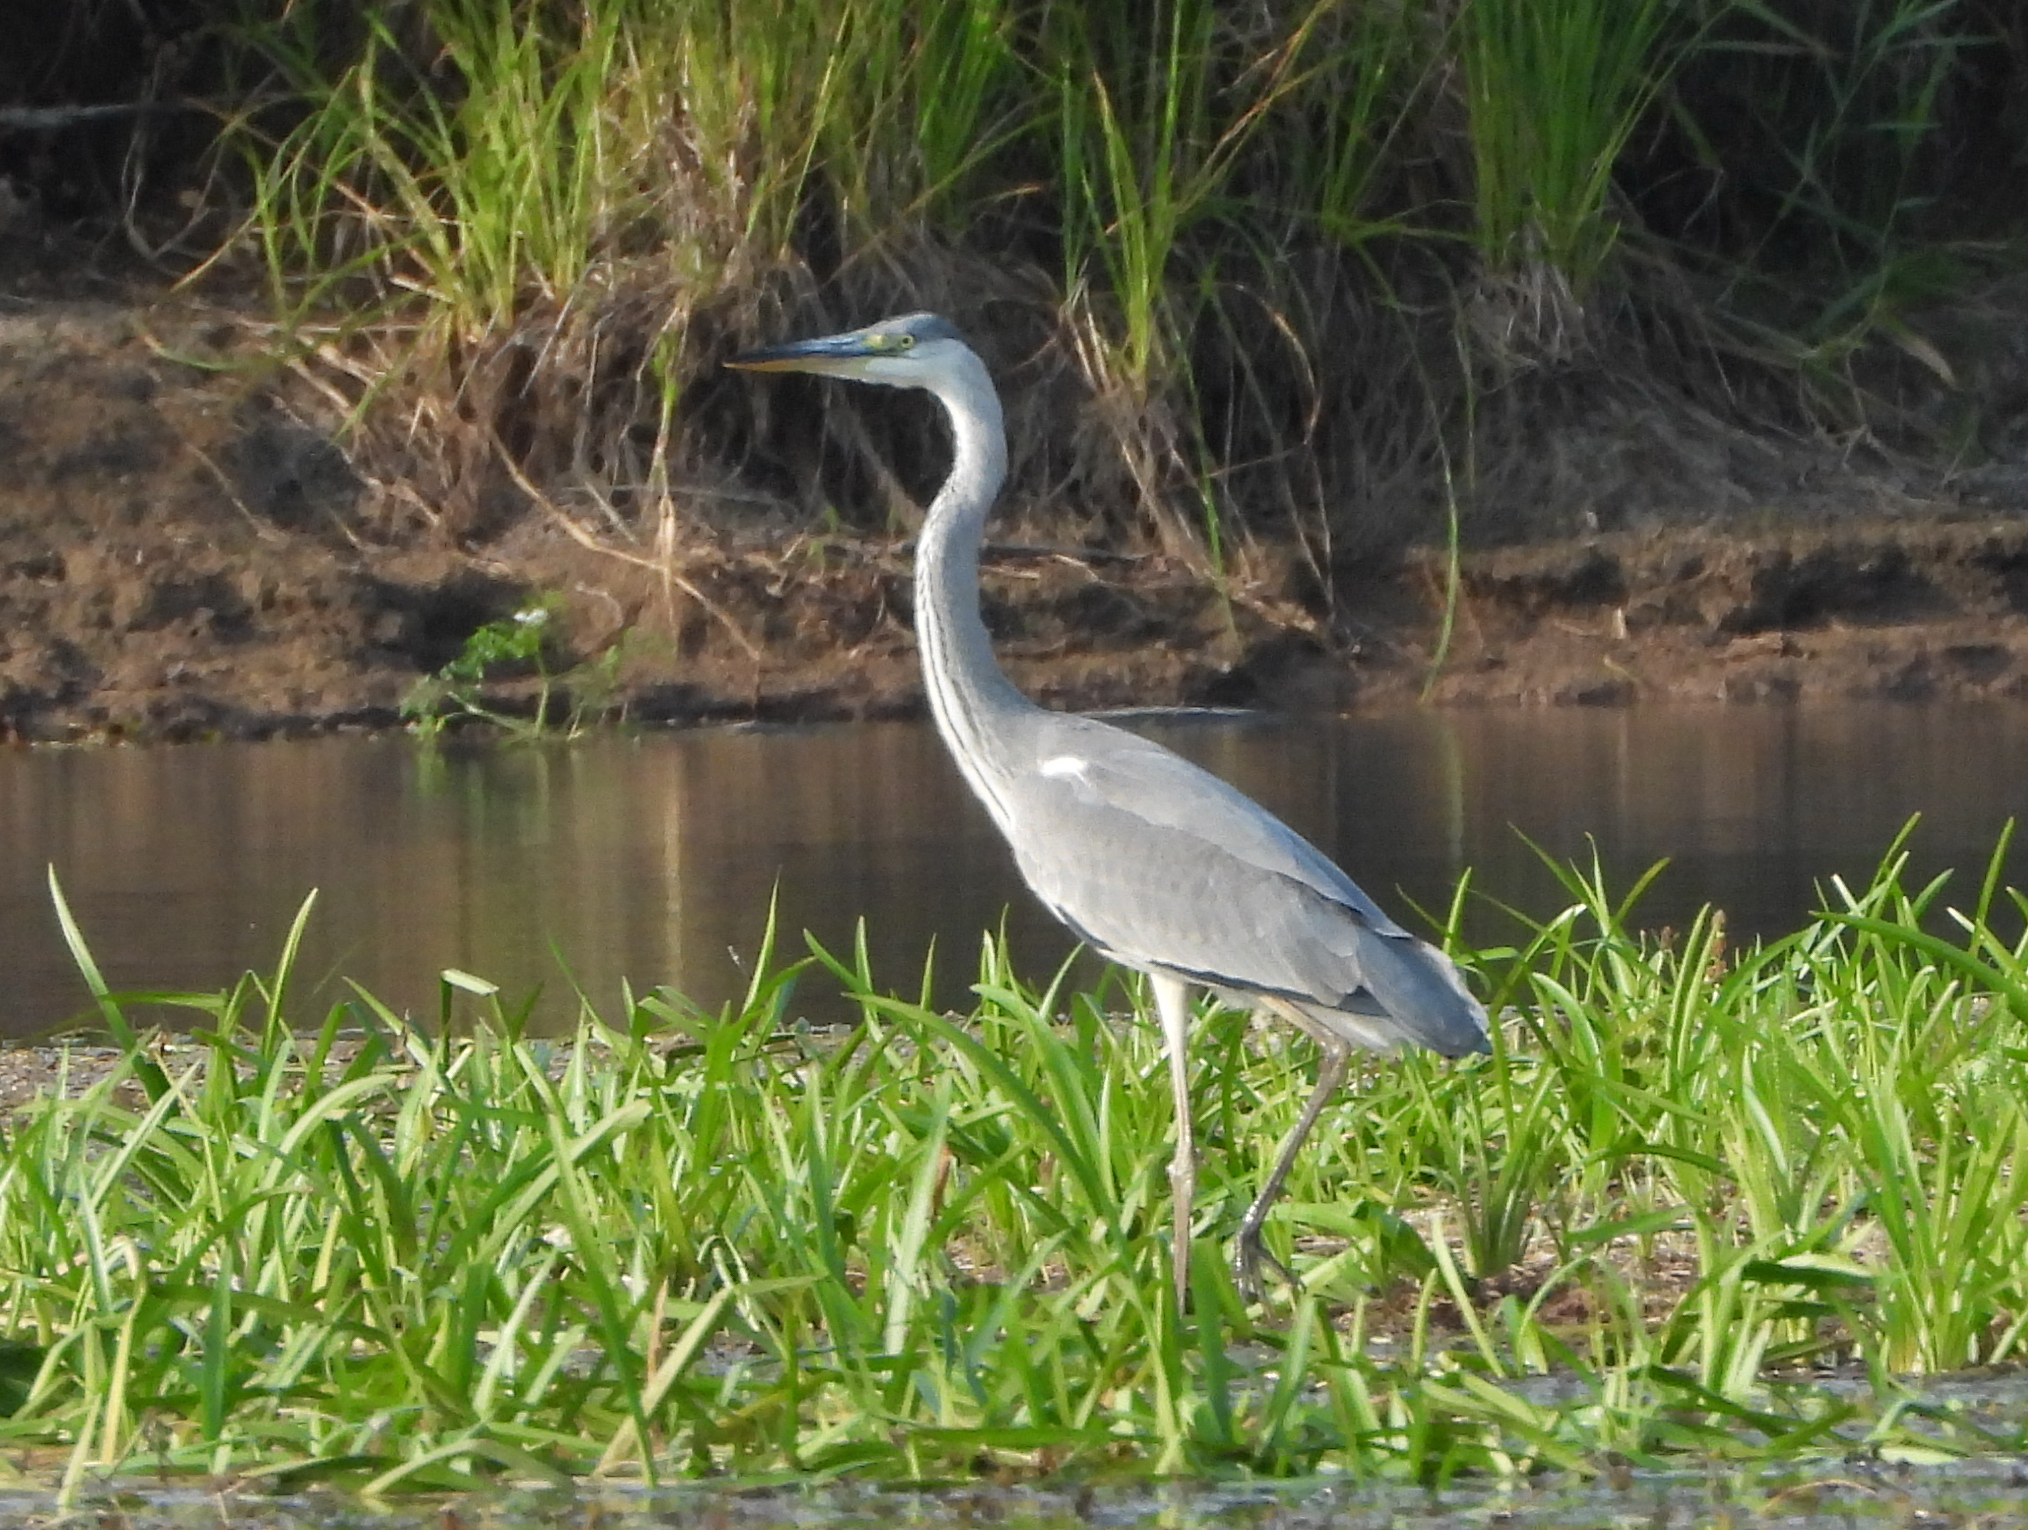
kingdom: Animalia
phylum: Chordata
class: Aves
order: Pelecaniformes
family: Ardeidae
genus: Ardea
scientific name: Ardea cinerea
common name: Grey heron
